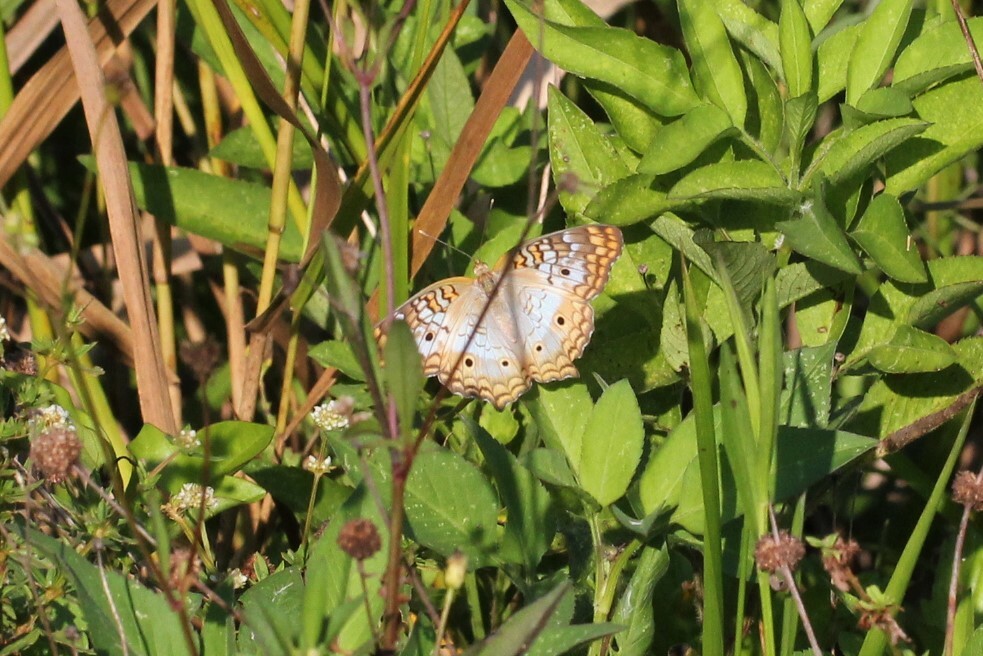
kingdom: Animalia
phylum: Arthropoda
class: Insecta
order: Lepidoptera
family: Nymphalidae
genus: Anartia
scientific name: Anartia jatrophae
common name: White peacock
